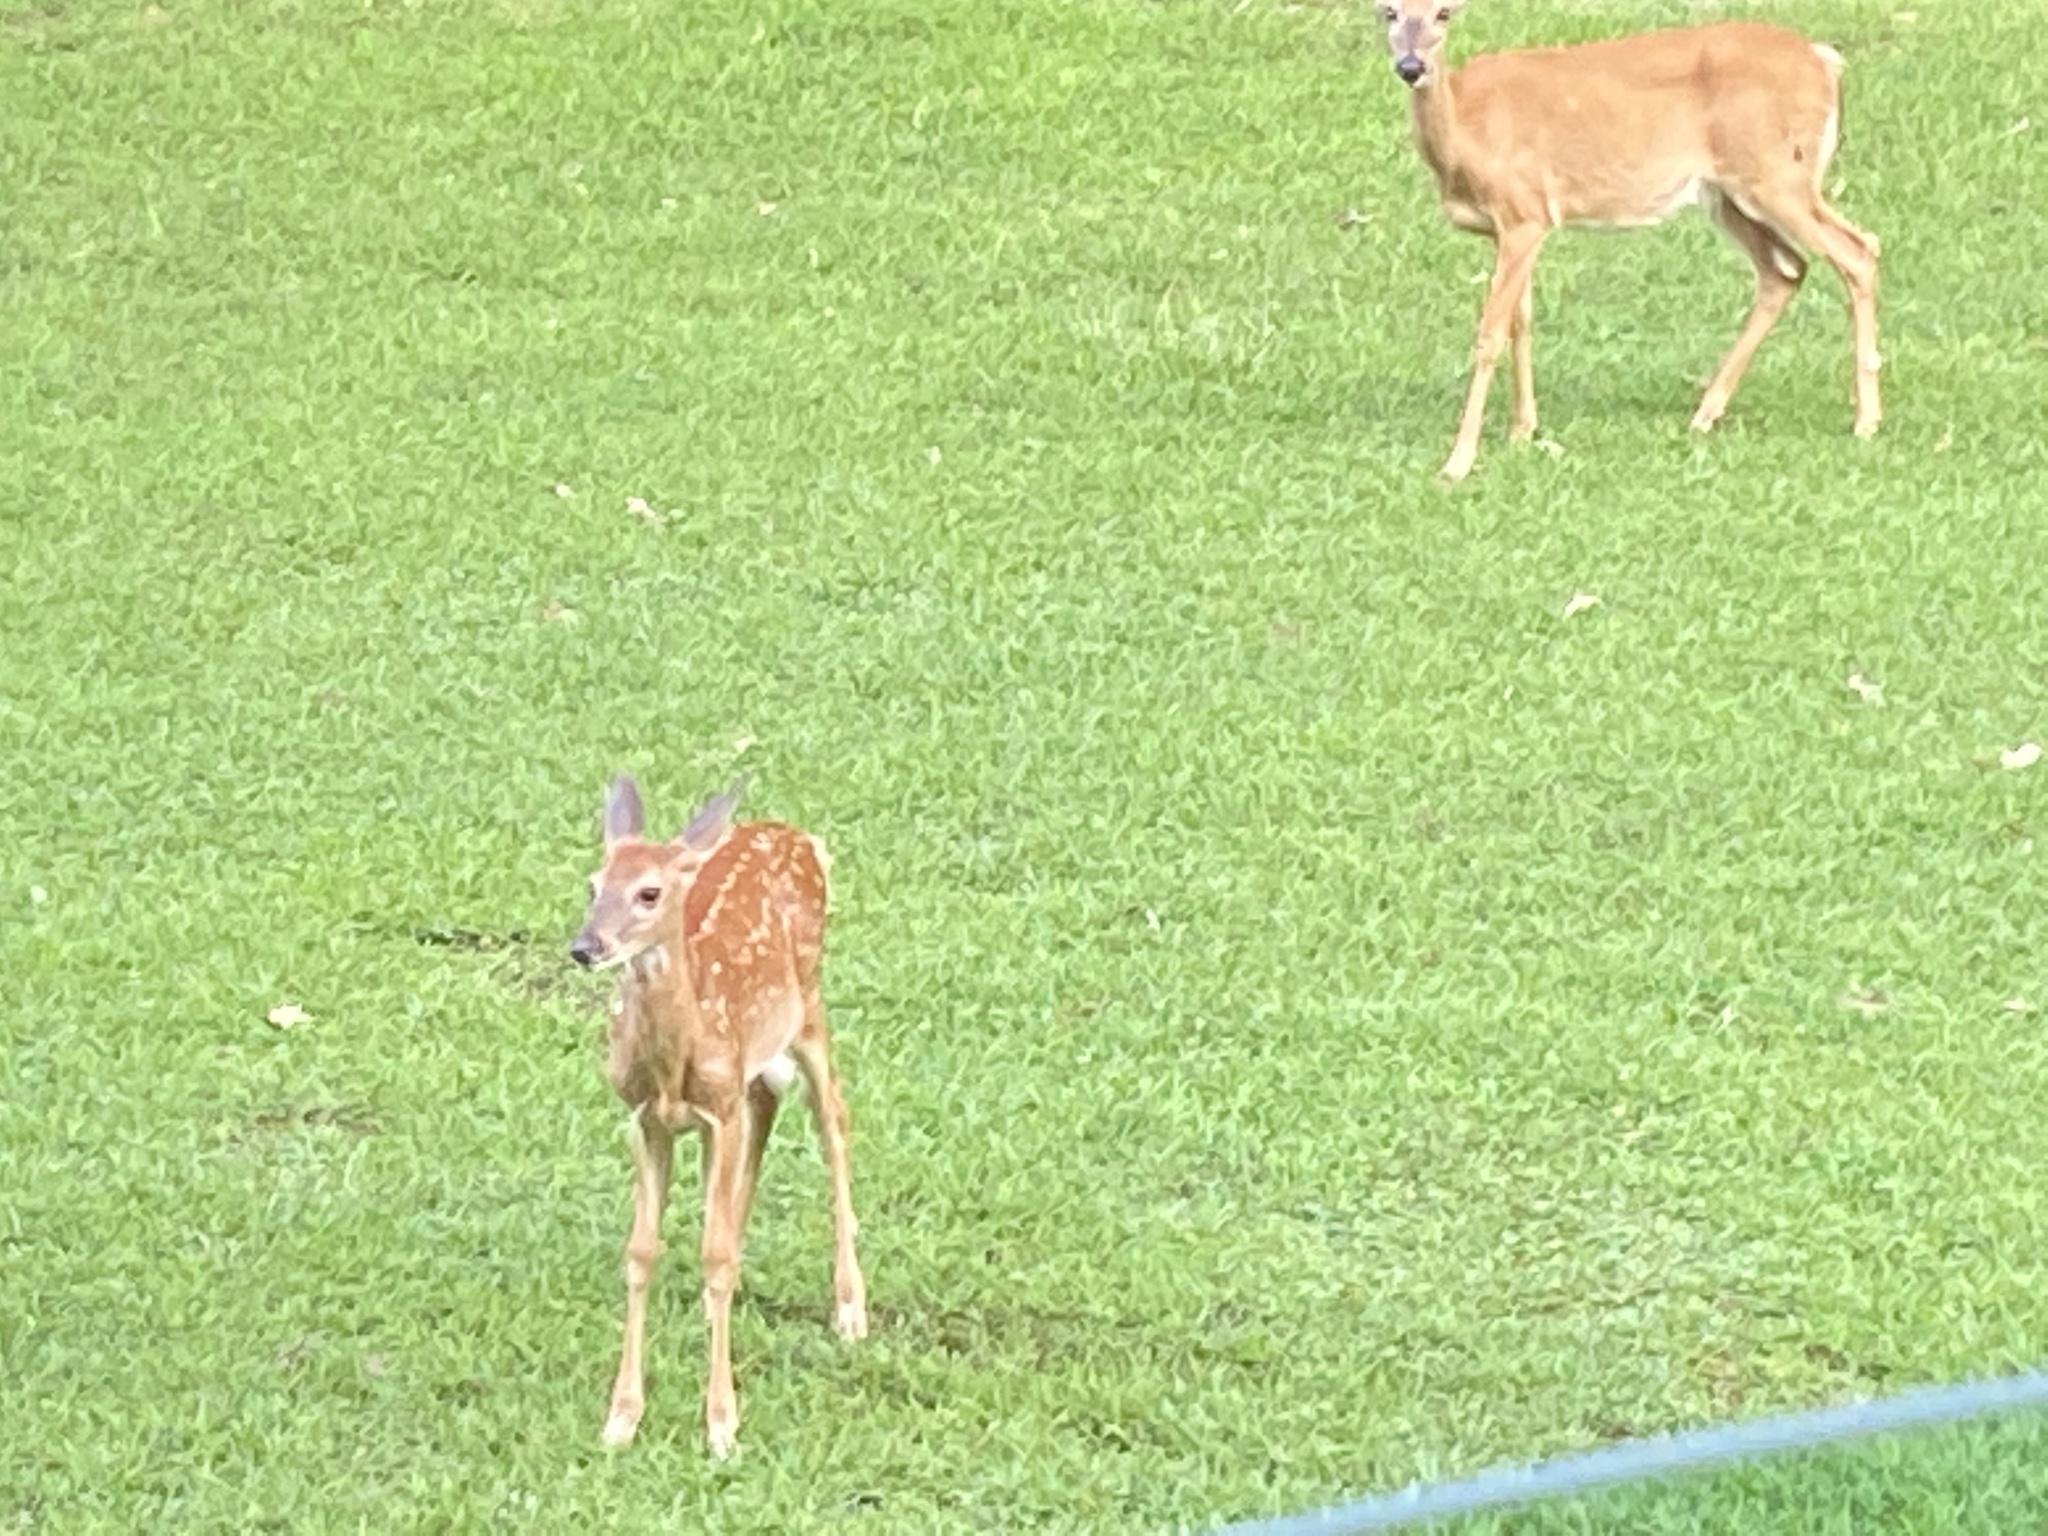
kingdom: Animalia
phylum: Chordata
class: Mammalia
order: Artiodactyla
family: Cervidae
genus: Odocoileus
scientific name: Odocoileus virginianus
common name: White-tailed deer
